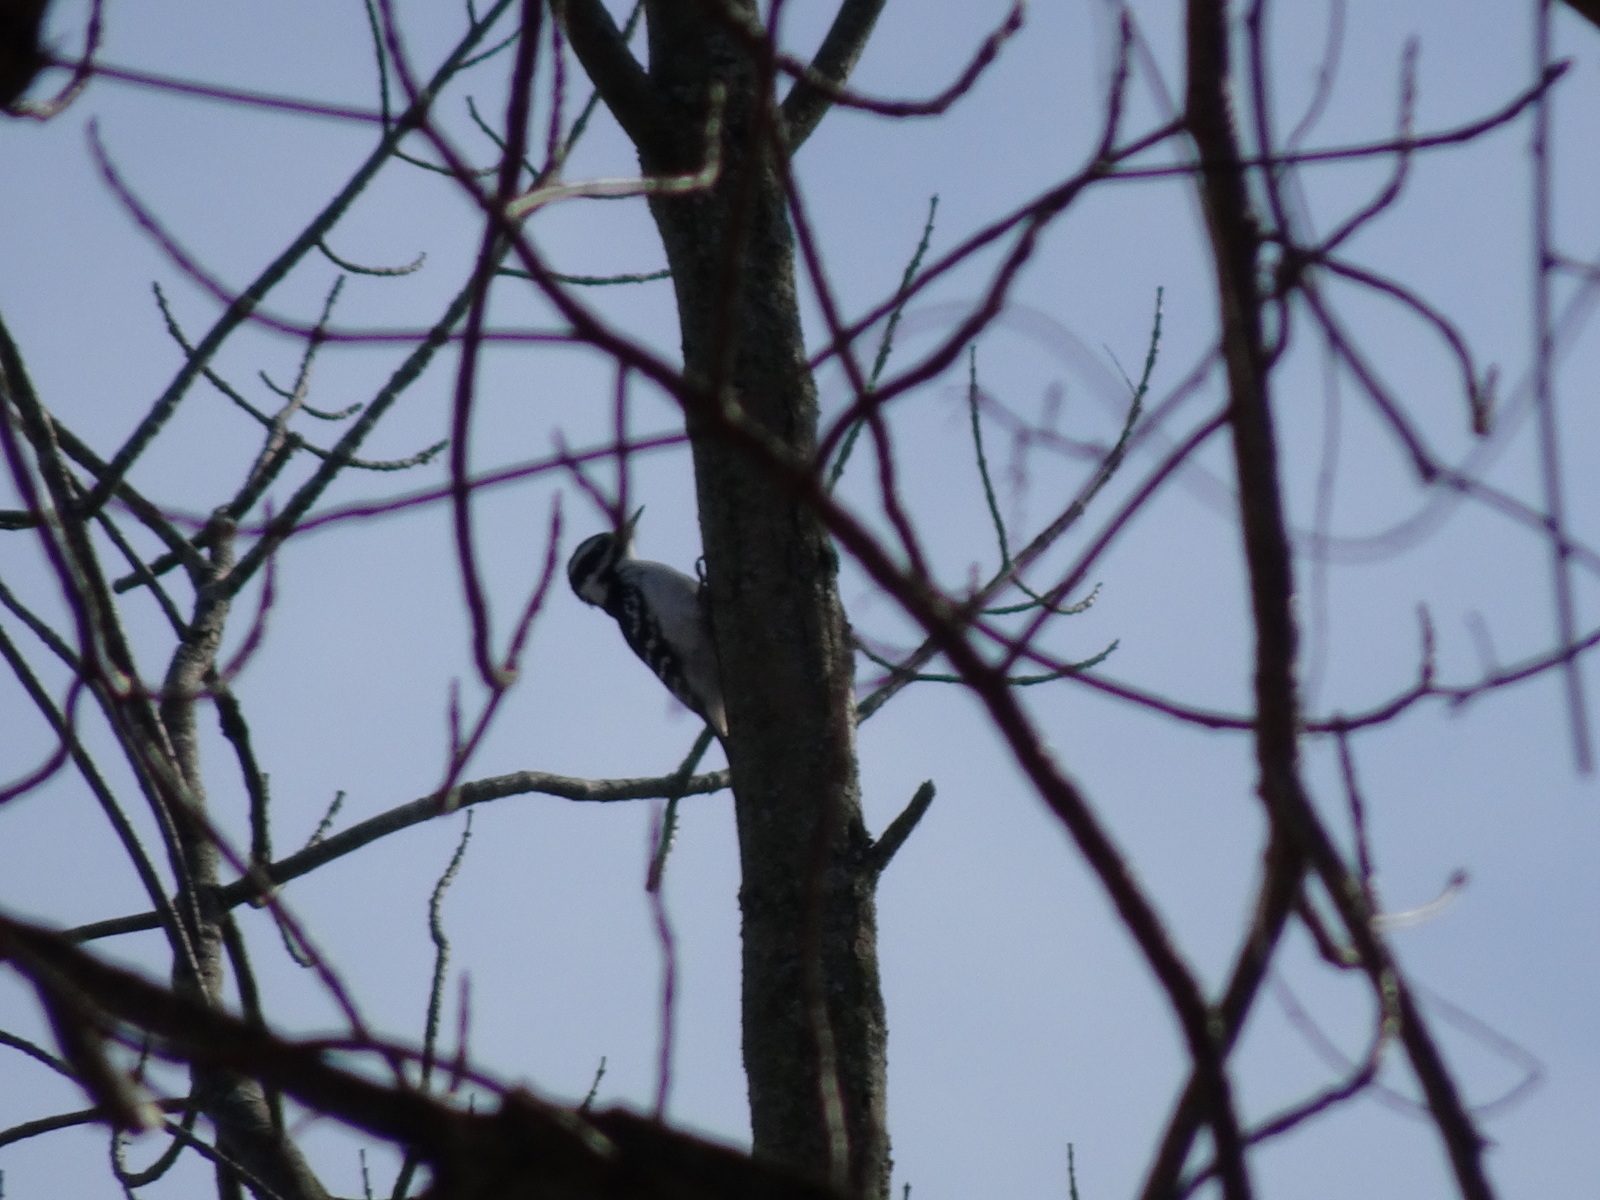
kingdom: Animalia
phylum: Chordata
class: Aves
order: Piciformes
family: Picidae
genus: Leuconotopicus
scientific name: Leuconotopicus villosus
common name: Hairy woodpecker
